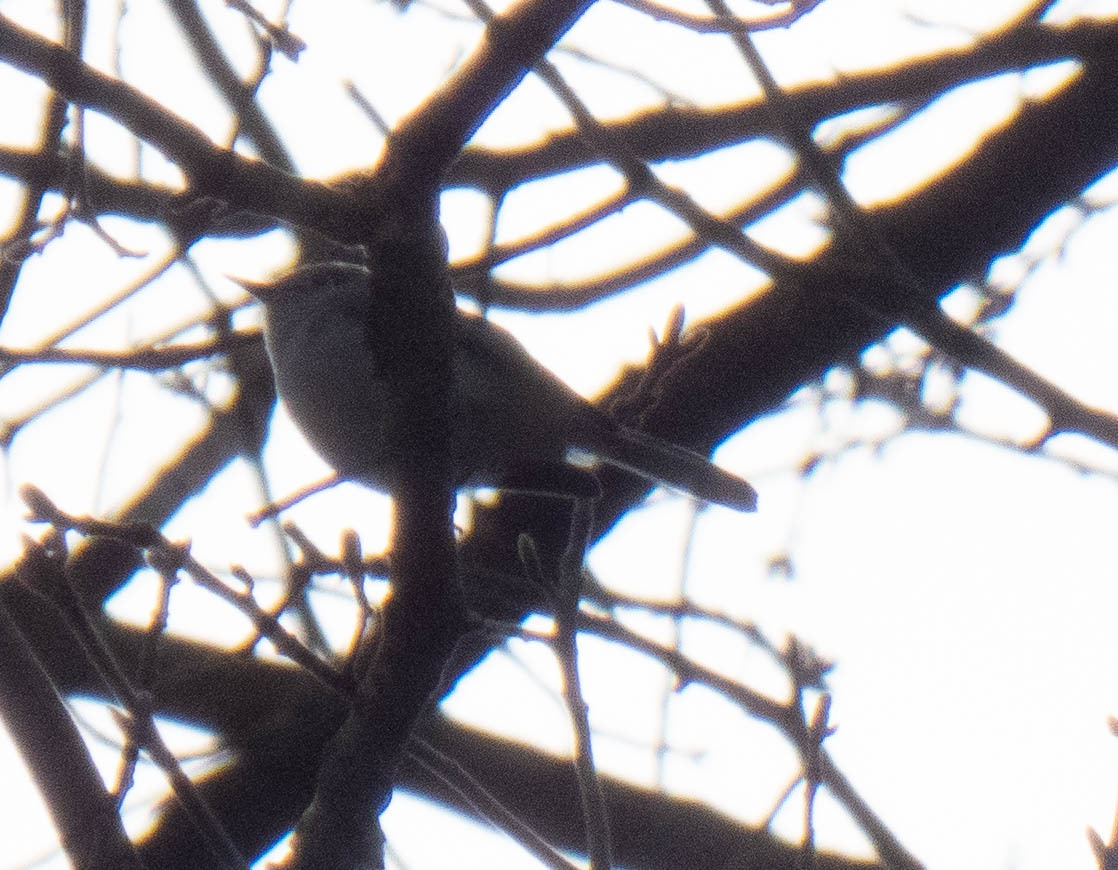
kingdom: Animalia
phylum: Chordata
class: Aves
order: Passeriformes
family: Polioptilidae
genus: Polioptila
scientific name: Polioptila caerulea
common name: Blue-gray gnatcatcher
